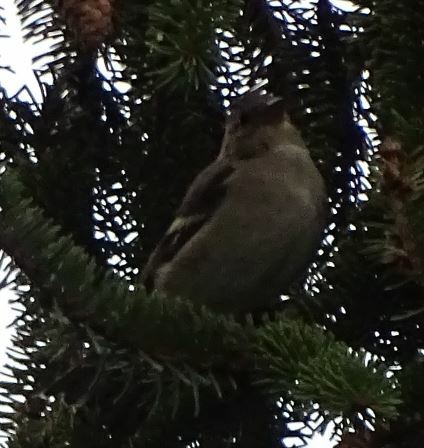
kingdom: Animalia
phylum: Chordata
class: Aves
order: Passeriformes
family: Fringillidae
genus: Fringilla
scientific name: Fringilla coelebs
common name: Common chaffinch
